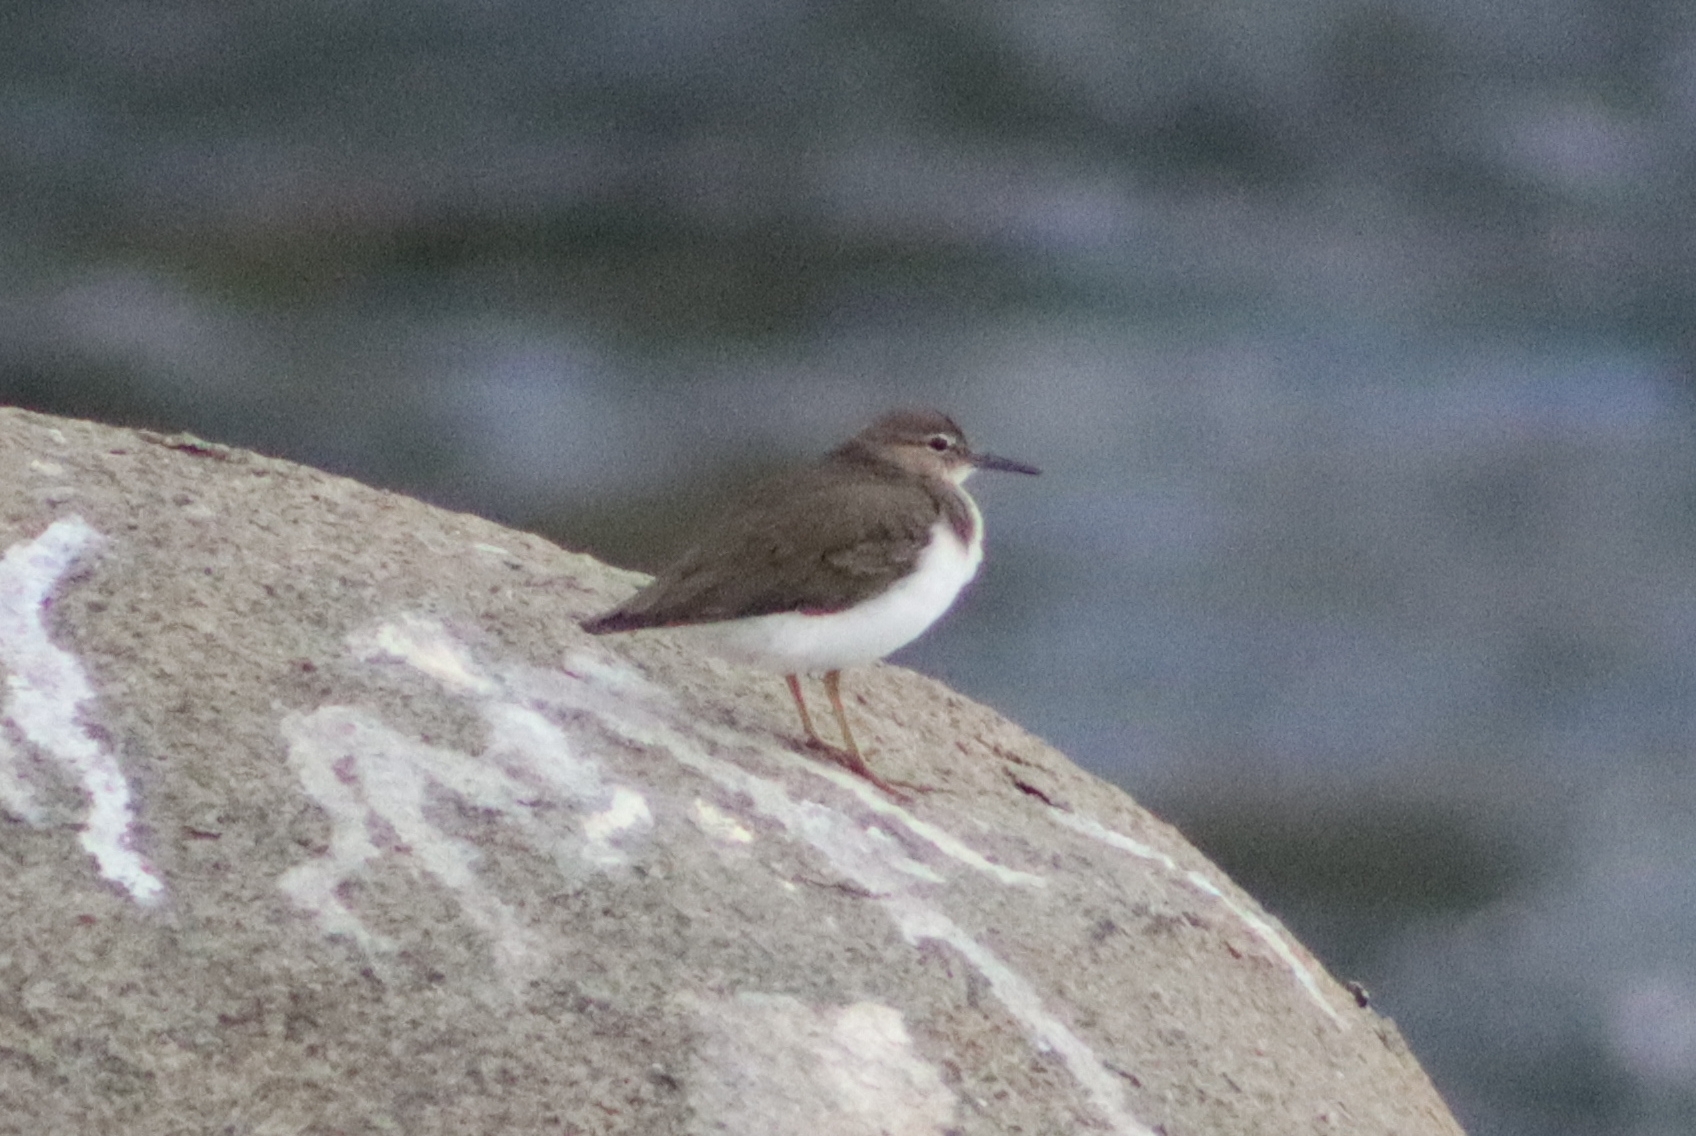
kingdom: Animalia
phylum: Chordata
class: Aves
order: Charadriiformes
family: Scolopacidae
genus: Actitis
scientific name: Actitis macularius
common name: Spotted sandpiper
